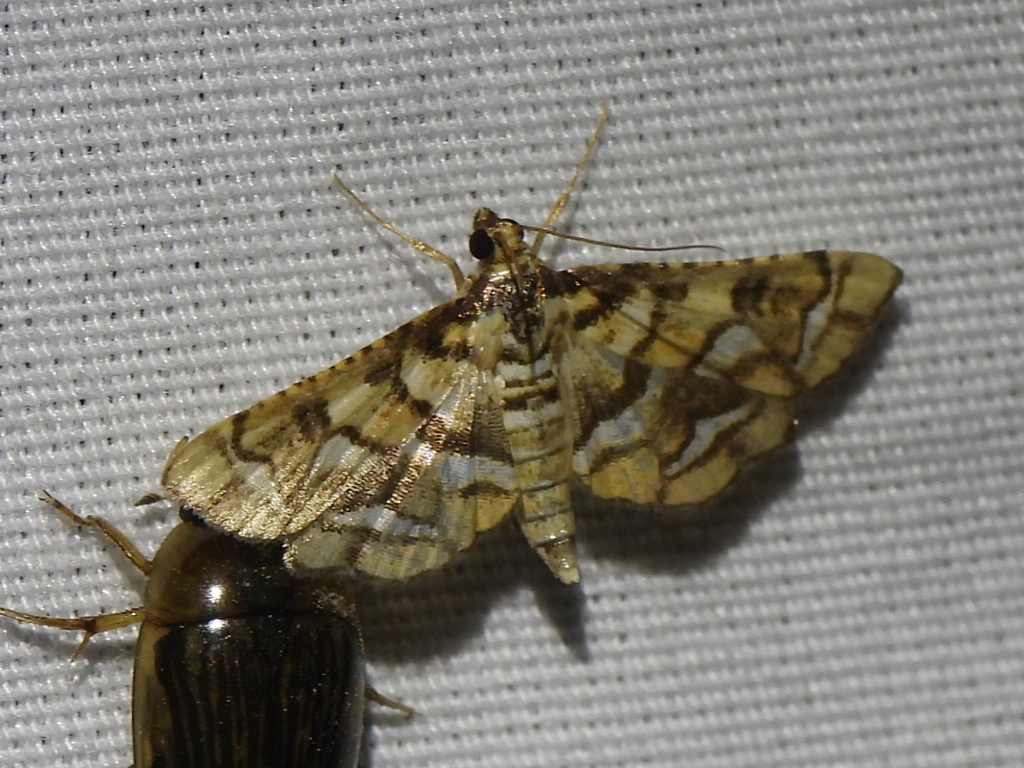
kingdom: Animalia
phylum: Arthropoda
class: Insecta
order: Lepidoptera
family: Crambidae
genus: Hileithia
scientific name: Hileithia magualis
